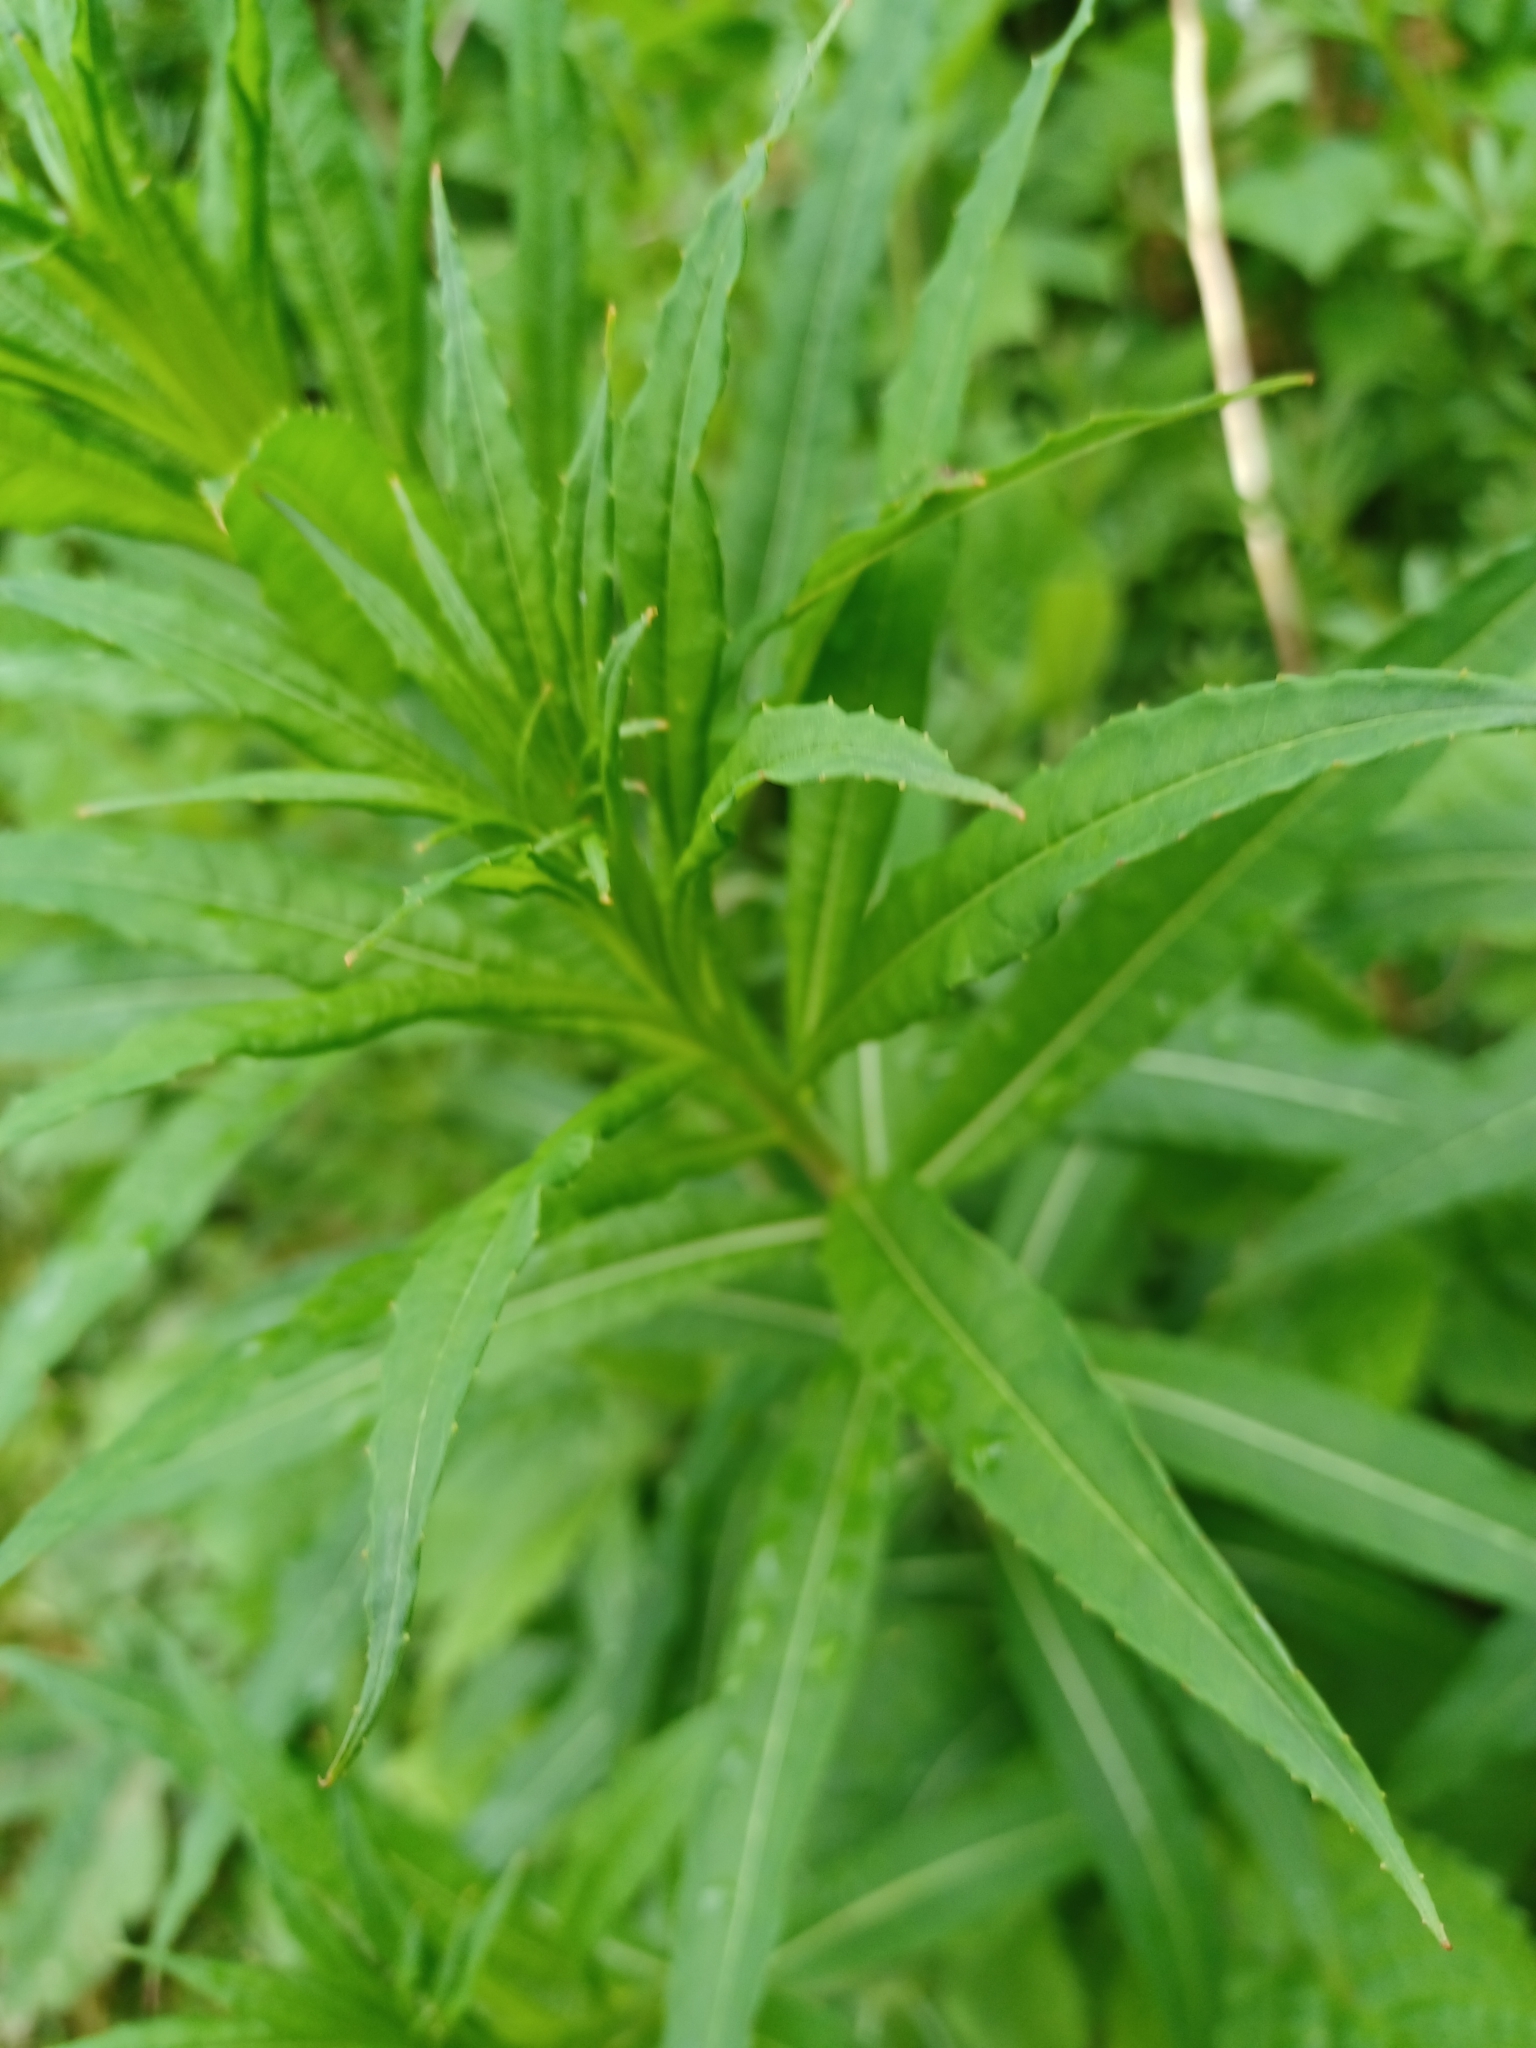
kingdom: Plantae
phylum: Tracheophyta
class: Magnoliopsida
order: Myrtales
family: Onagraceae
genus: Chamaenerion
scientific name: Chamaenerion angustifolium
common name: Fireweed
